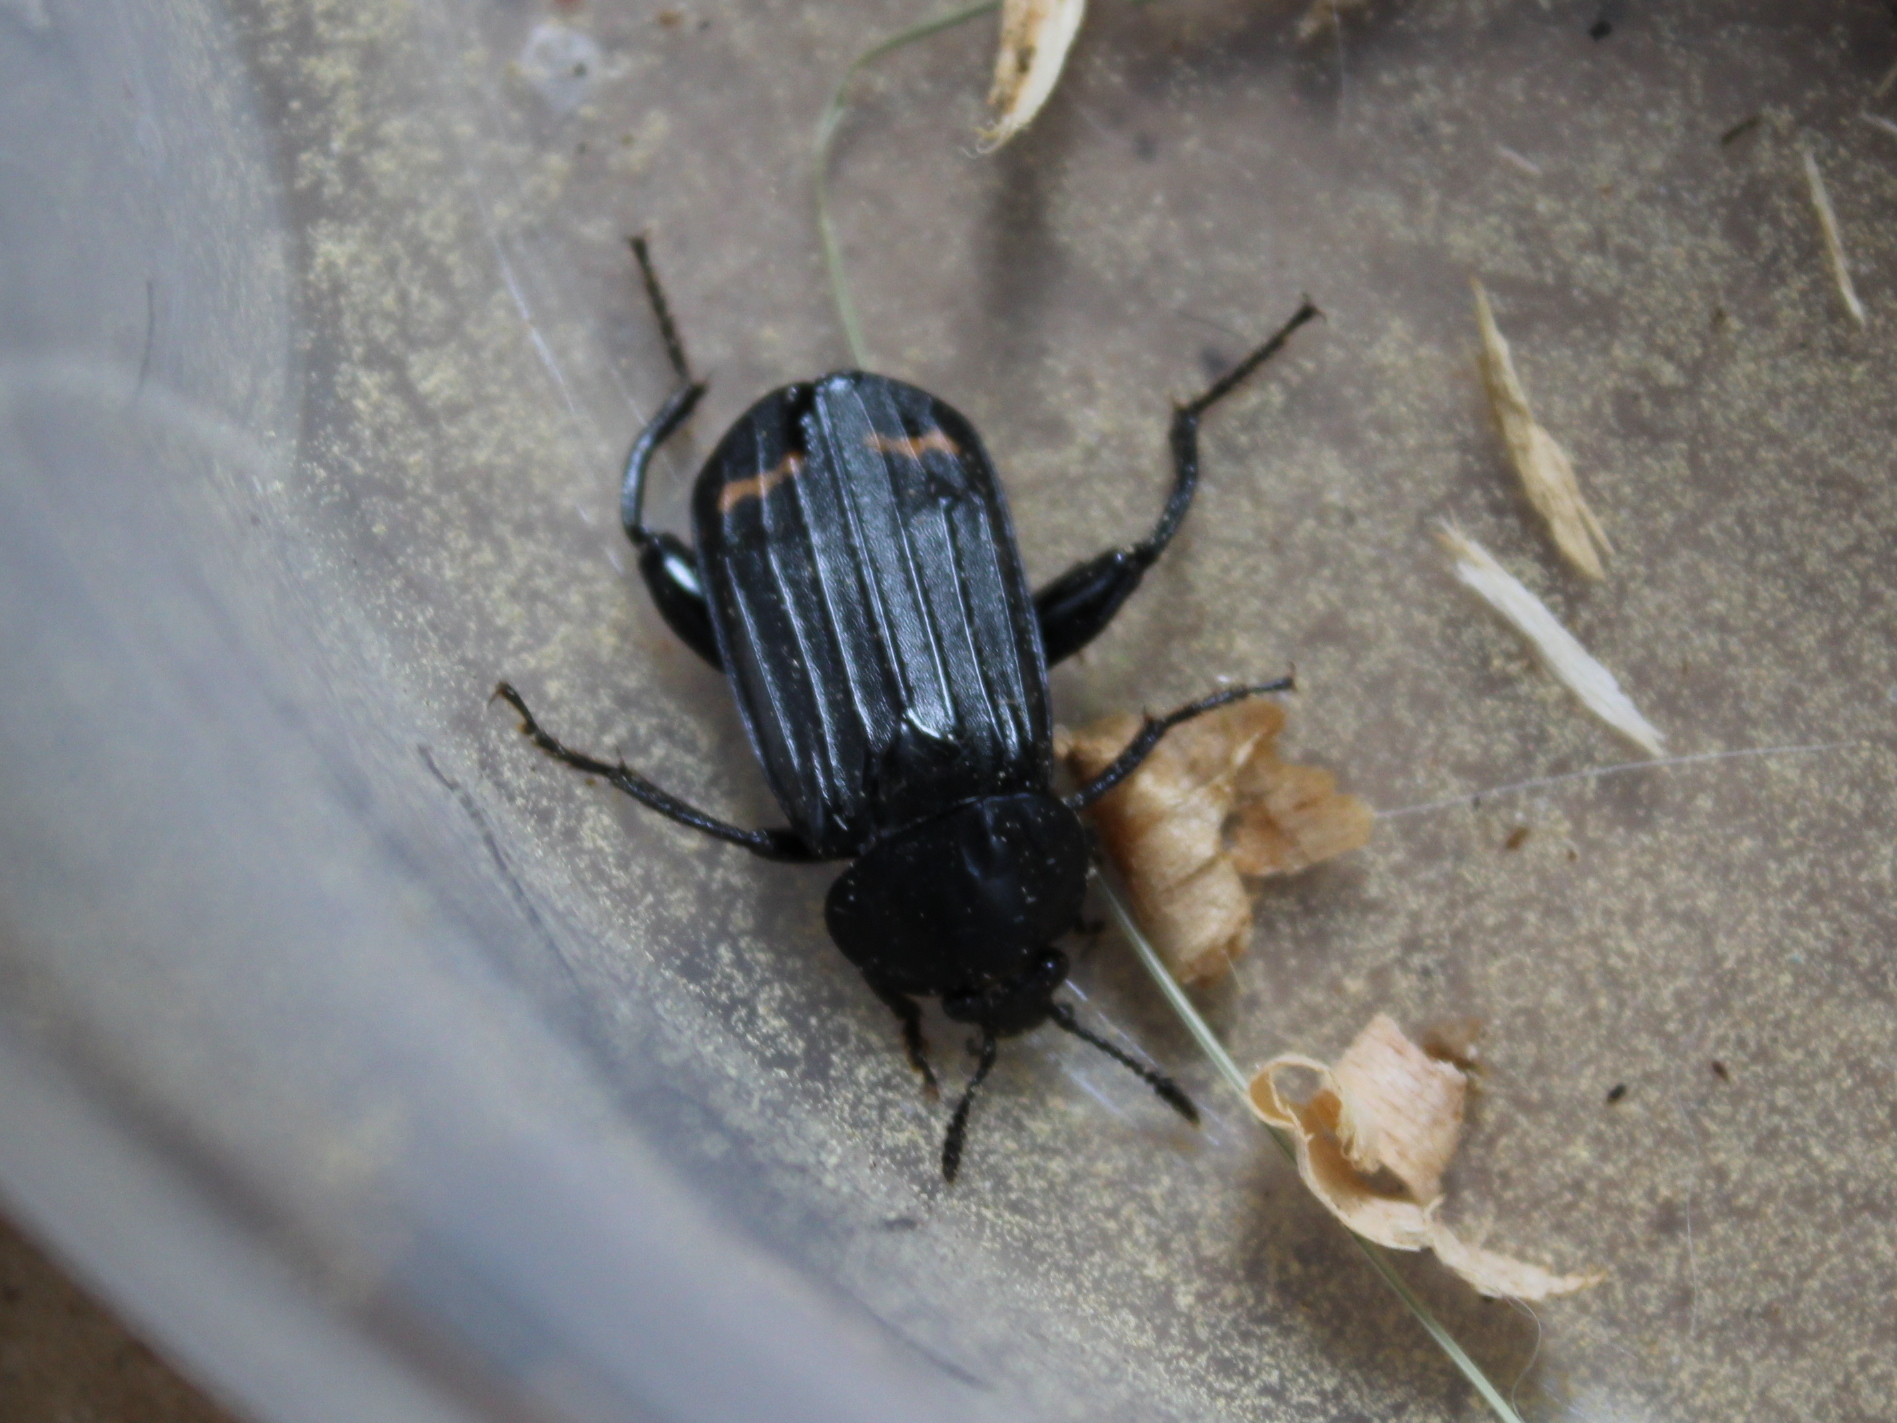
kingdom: Animalia
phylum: Arthropoda
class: Insecta
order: Coleoptera
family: Staphylinidae
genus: Necrodes
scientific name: Necrodes surinamensis
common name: Red-lined carrion beetle
